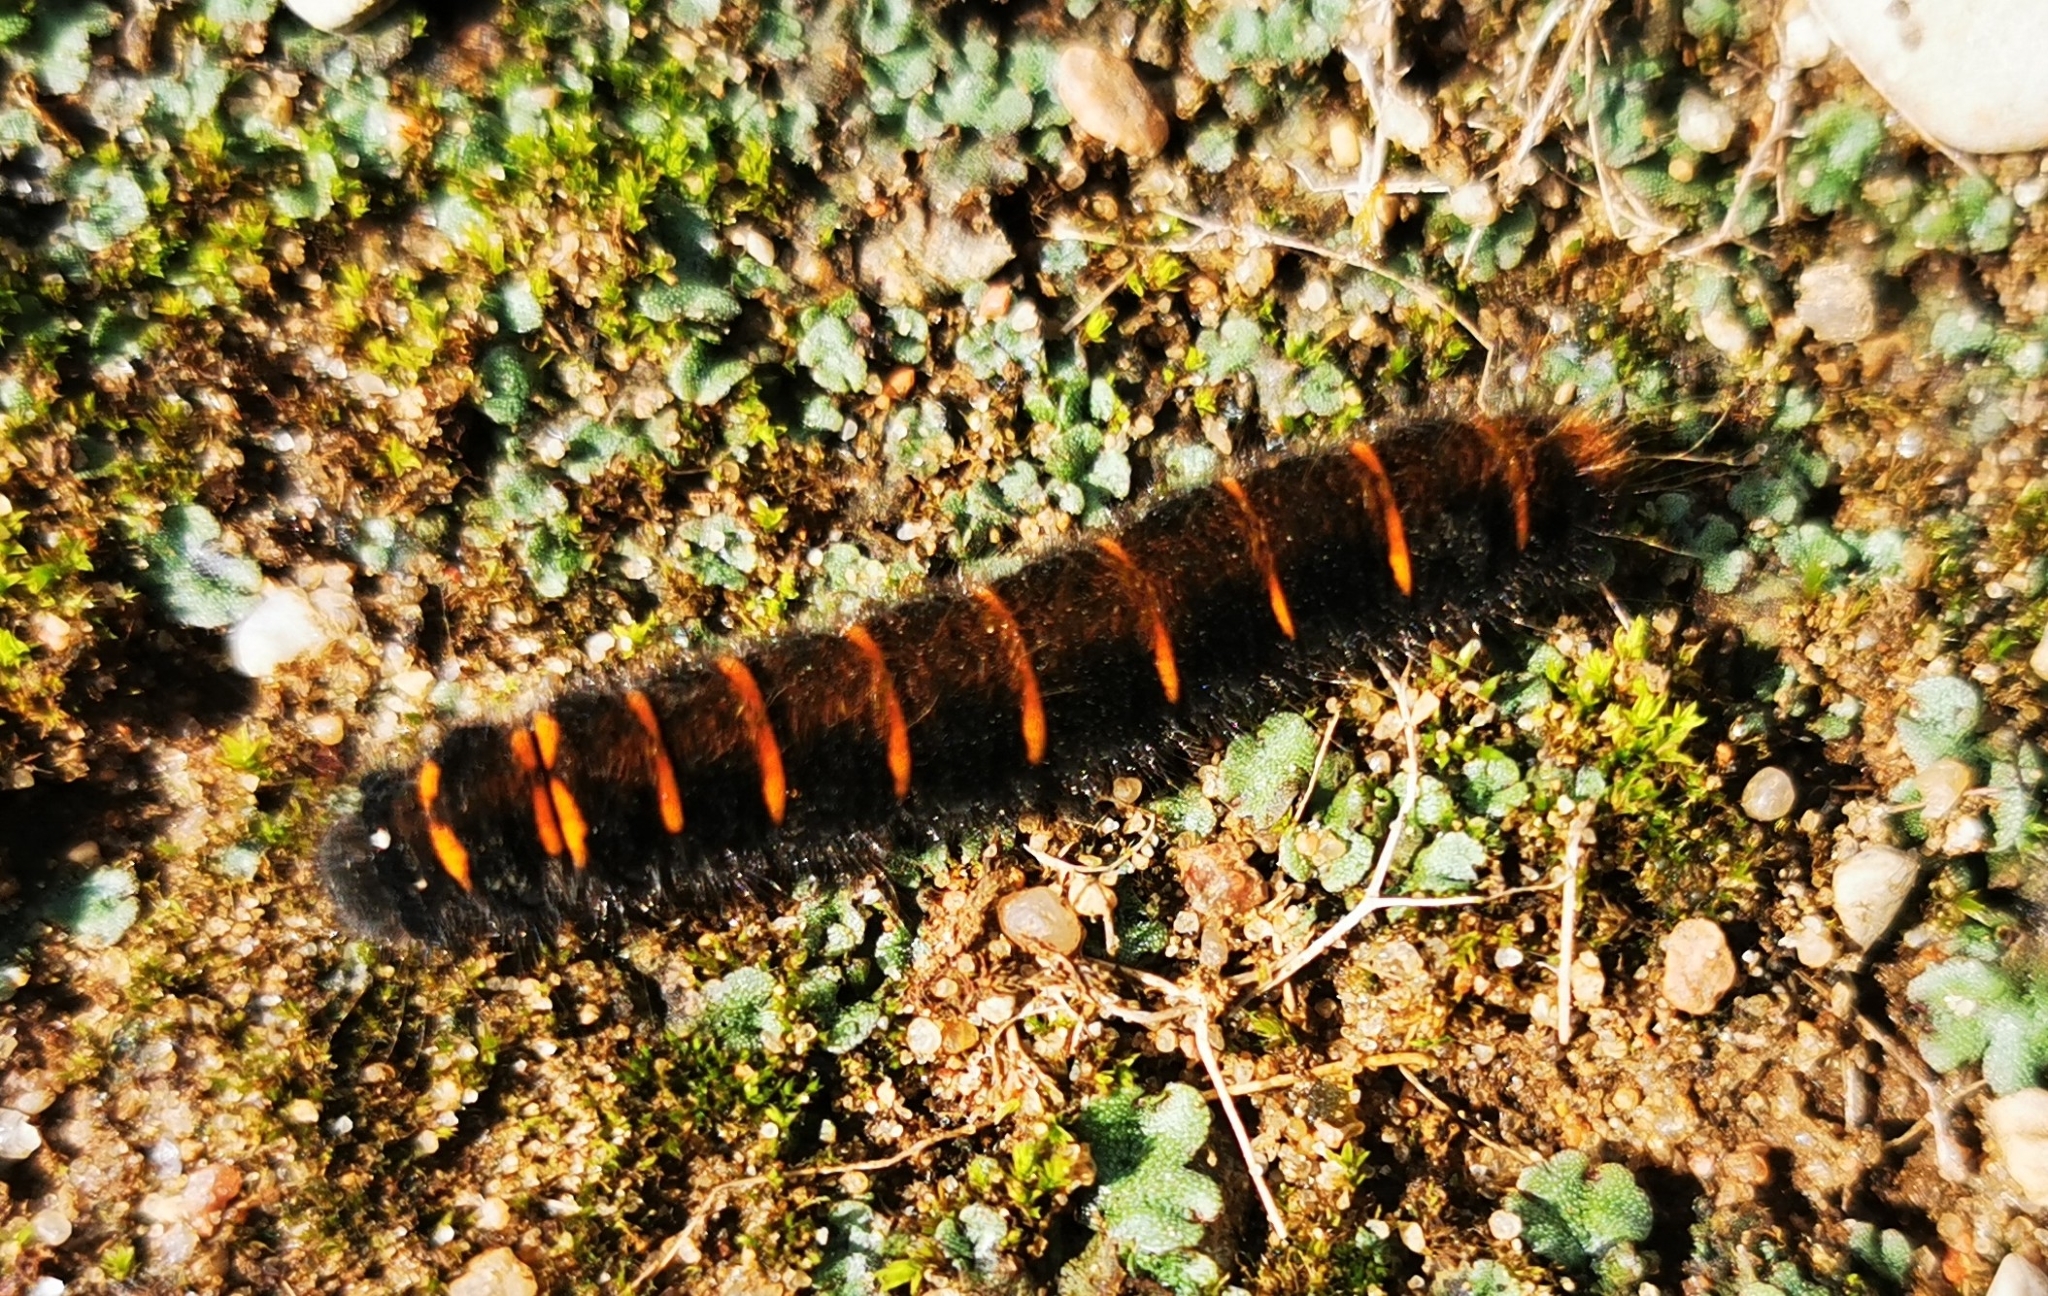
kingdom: Animalia
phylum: Arthropoda
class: Insecta
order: Lepidoptera
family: Lasiocampidae
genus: Macrothylacia
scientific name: Macrothylacia rubi
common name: Fox moth
